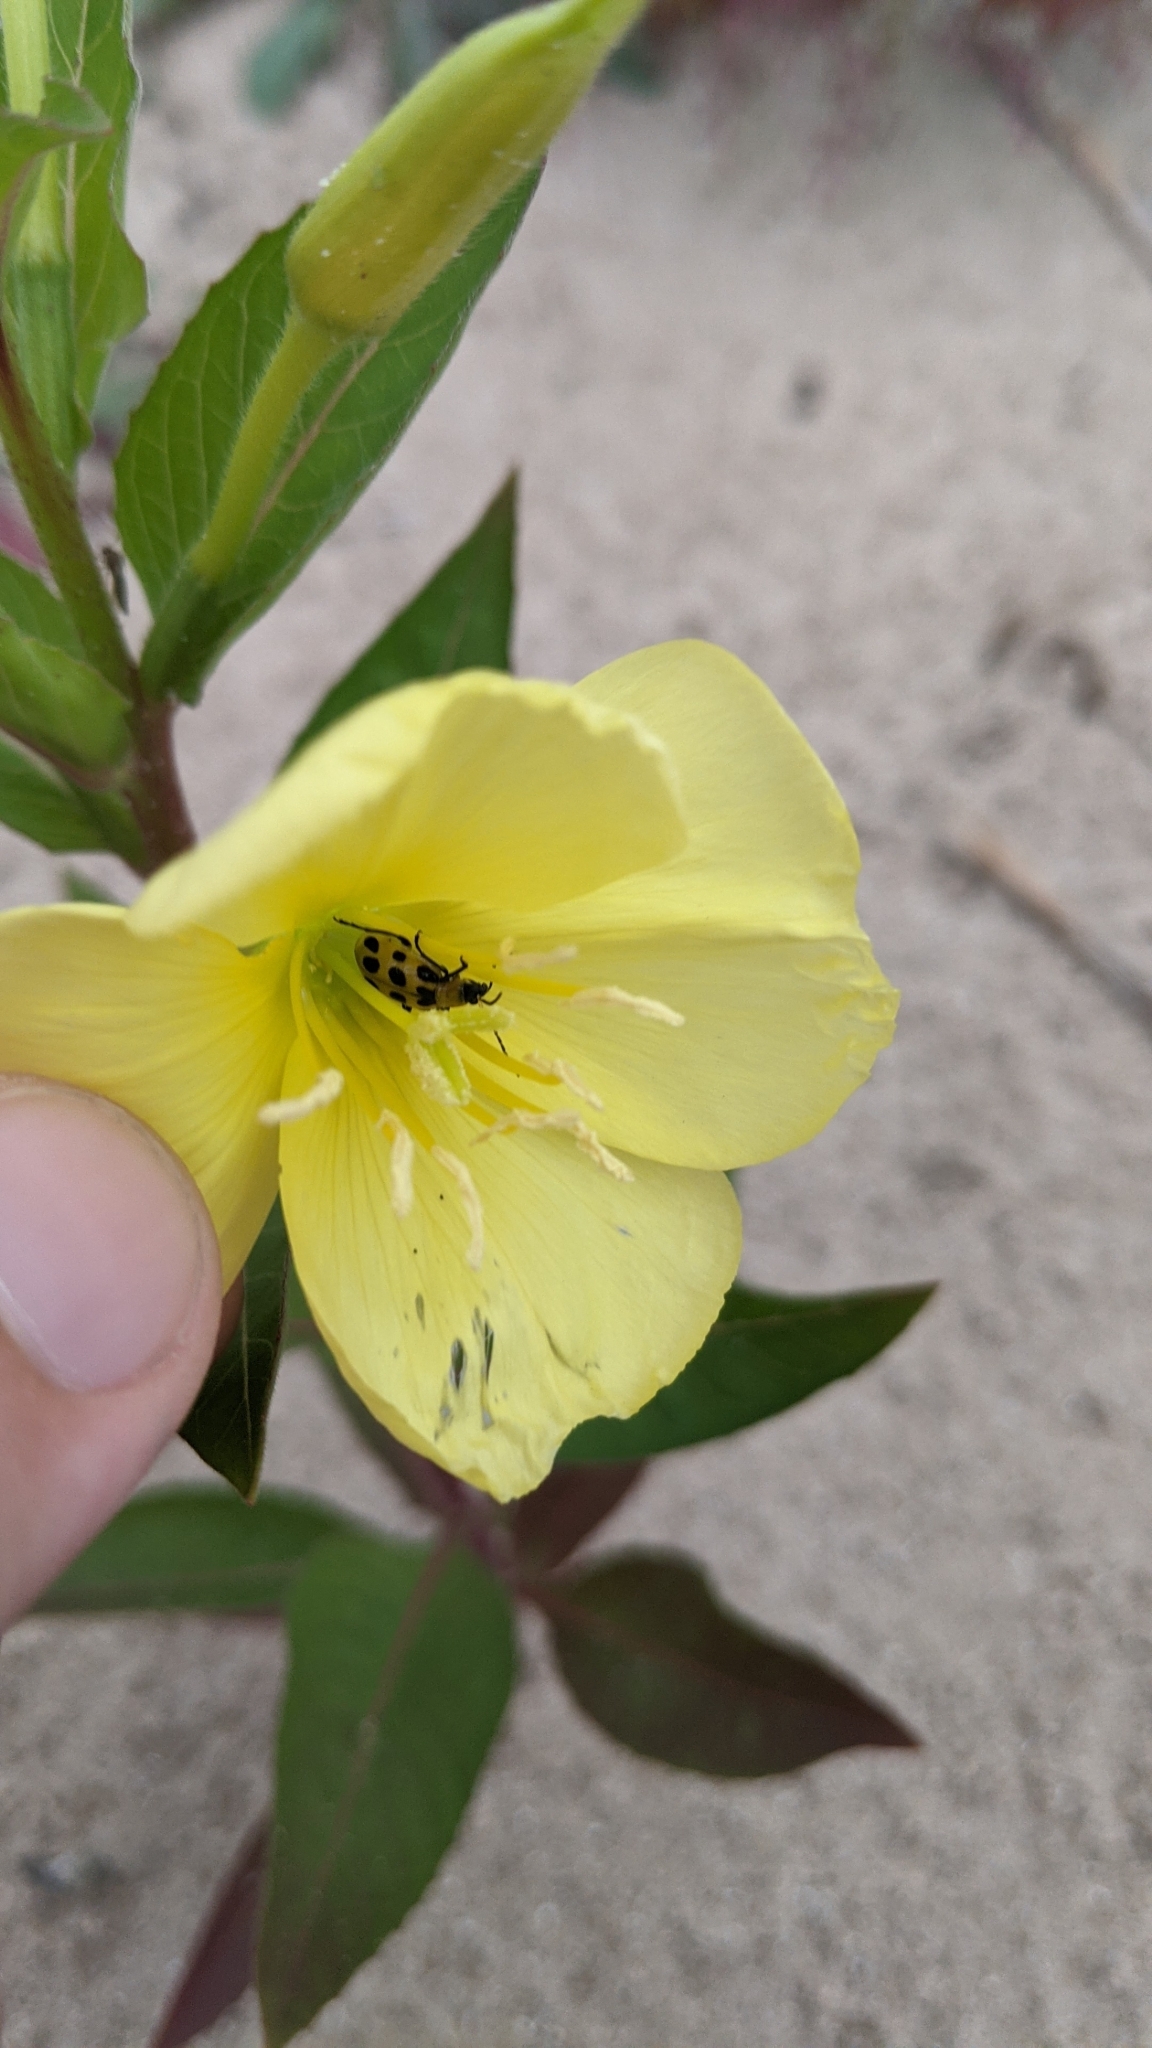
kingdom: Animalia
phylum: Arthropoda
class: Insecta
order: Coleoptera
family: Chrysomelidae
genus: Diabrotica
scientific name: Diabrotica undecimpunctata
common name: Spotted cucumber beetle
